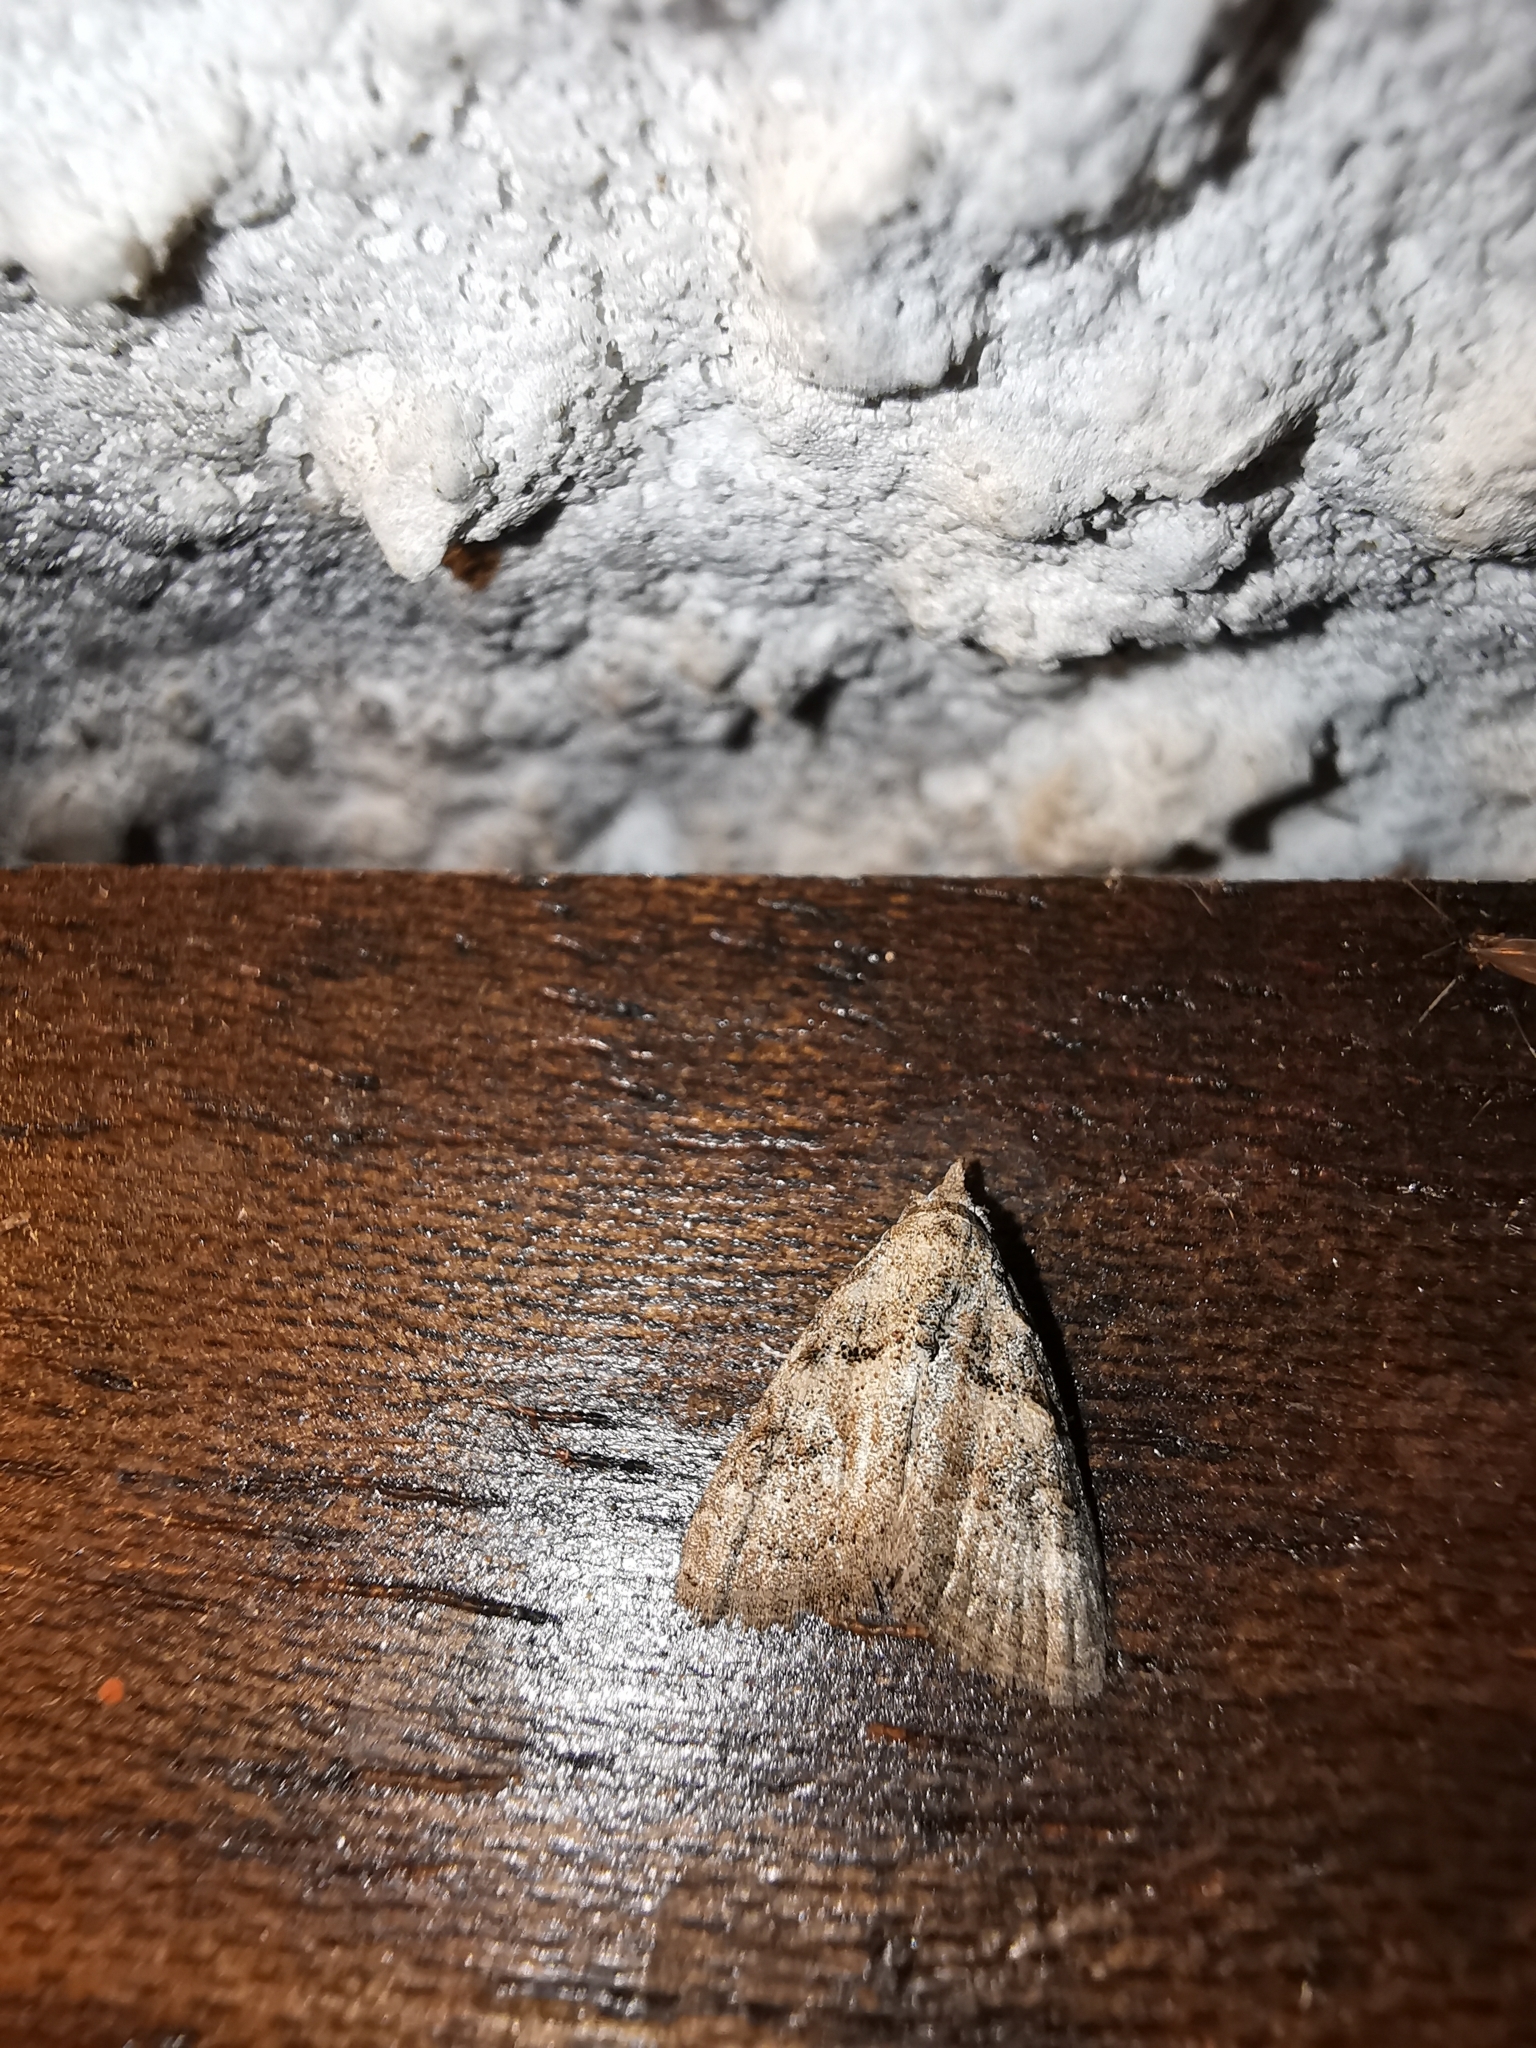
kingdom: Animalia
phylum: Arthropoda
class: Insecta
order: Lepidoptera
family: Nolidae
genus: Nola
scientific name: Nola harouni
